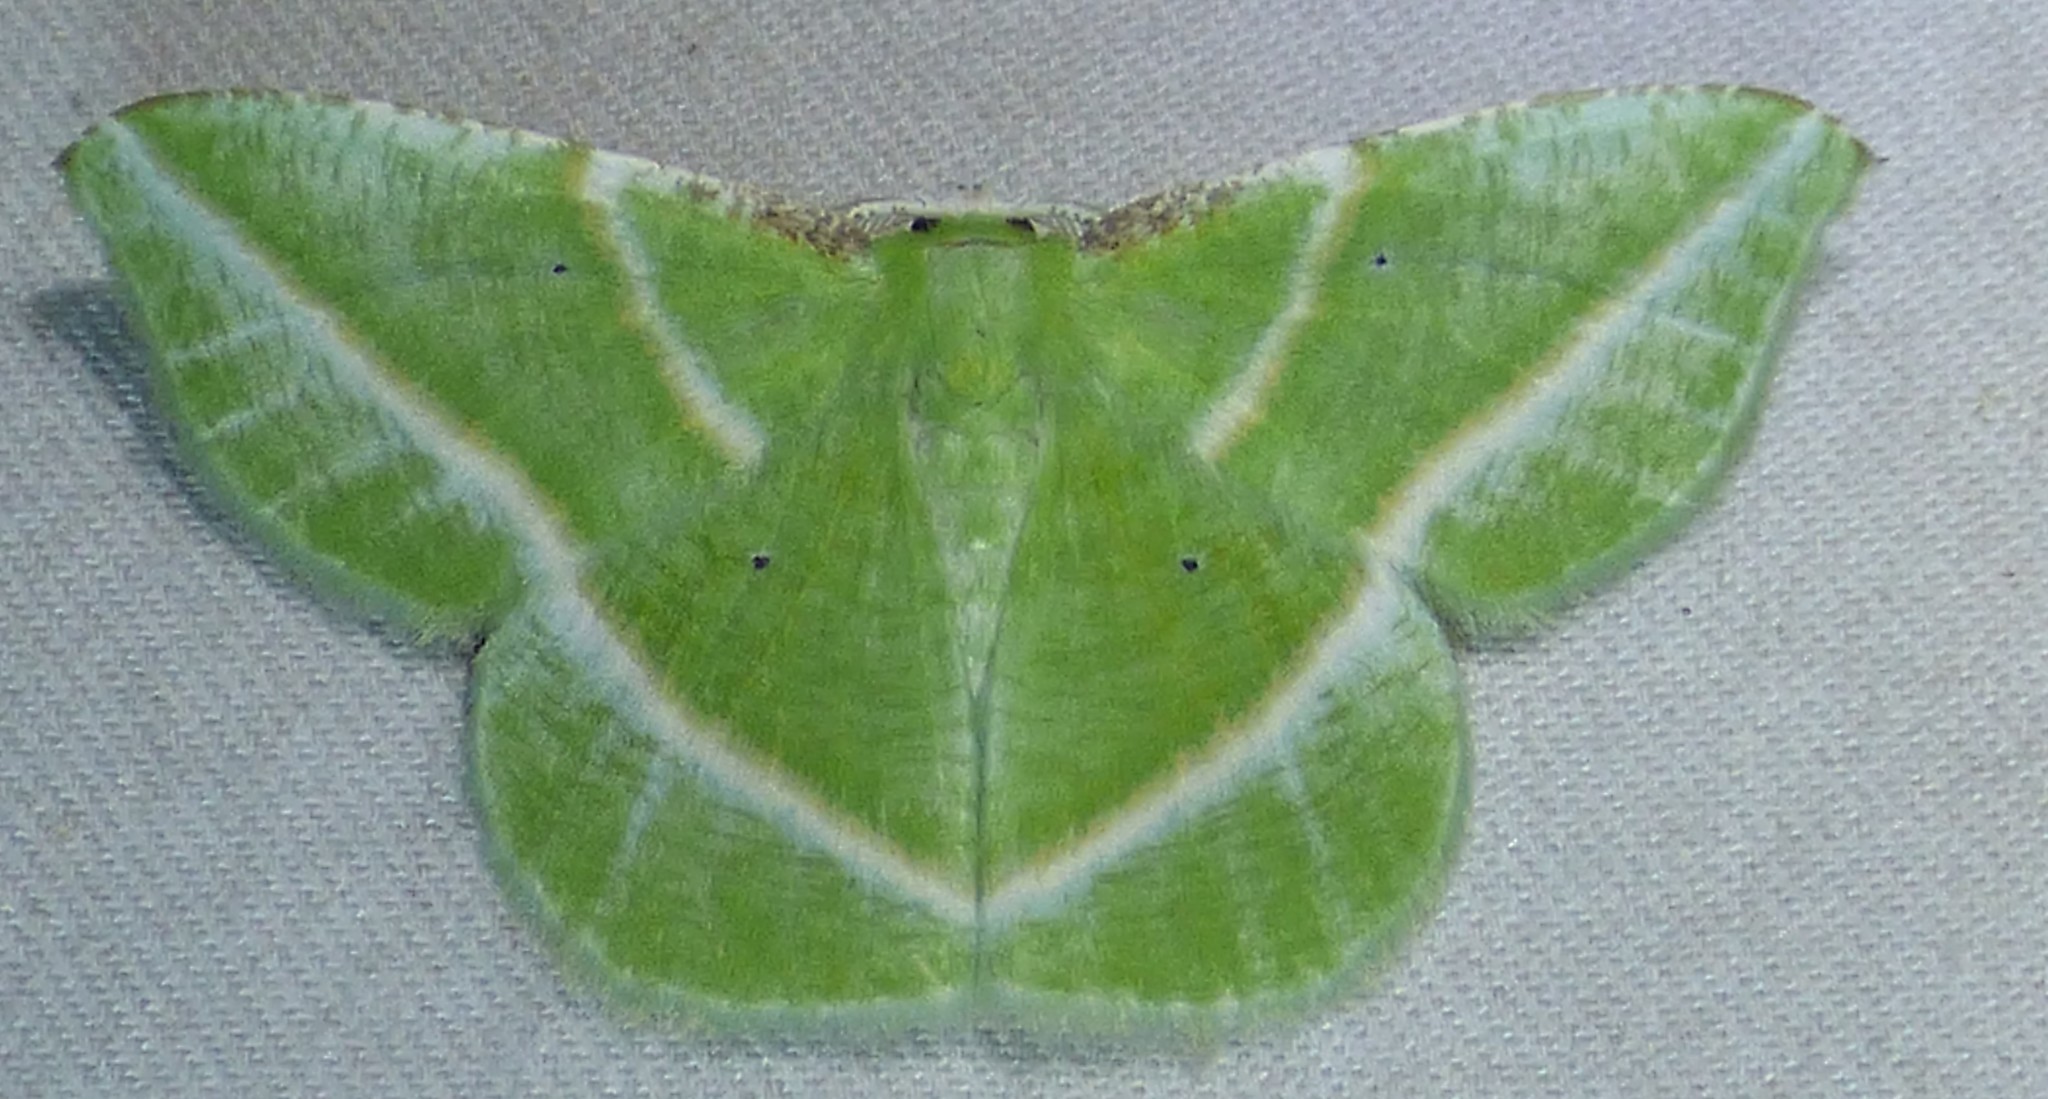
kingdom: Animalia
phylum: Arthropoda
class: Insecta
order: Lepidoptera
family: Geometridae
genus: Dichorda
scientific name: Dichorda iridaria
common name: Showy emerald
